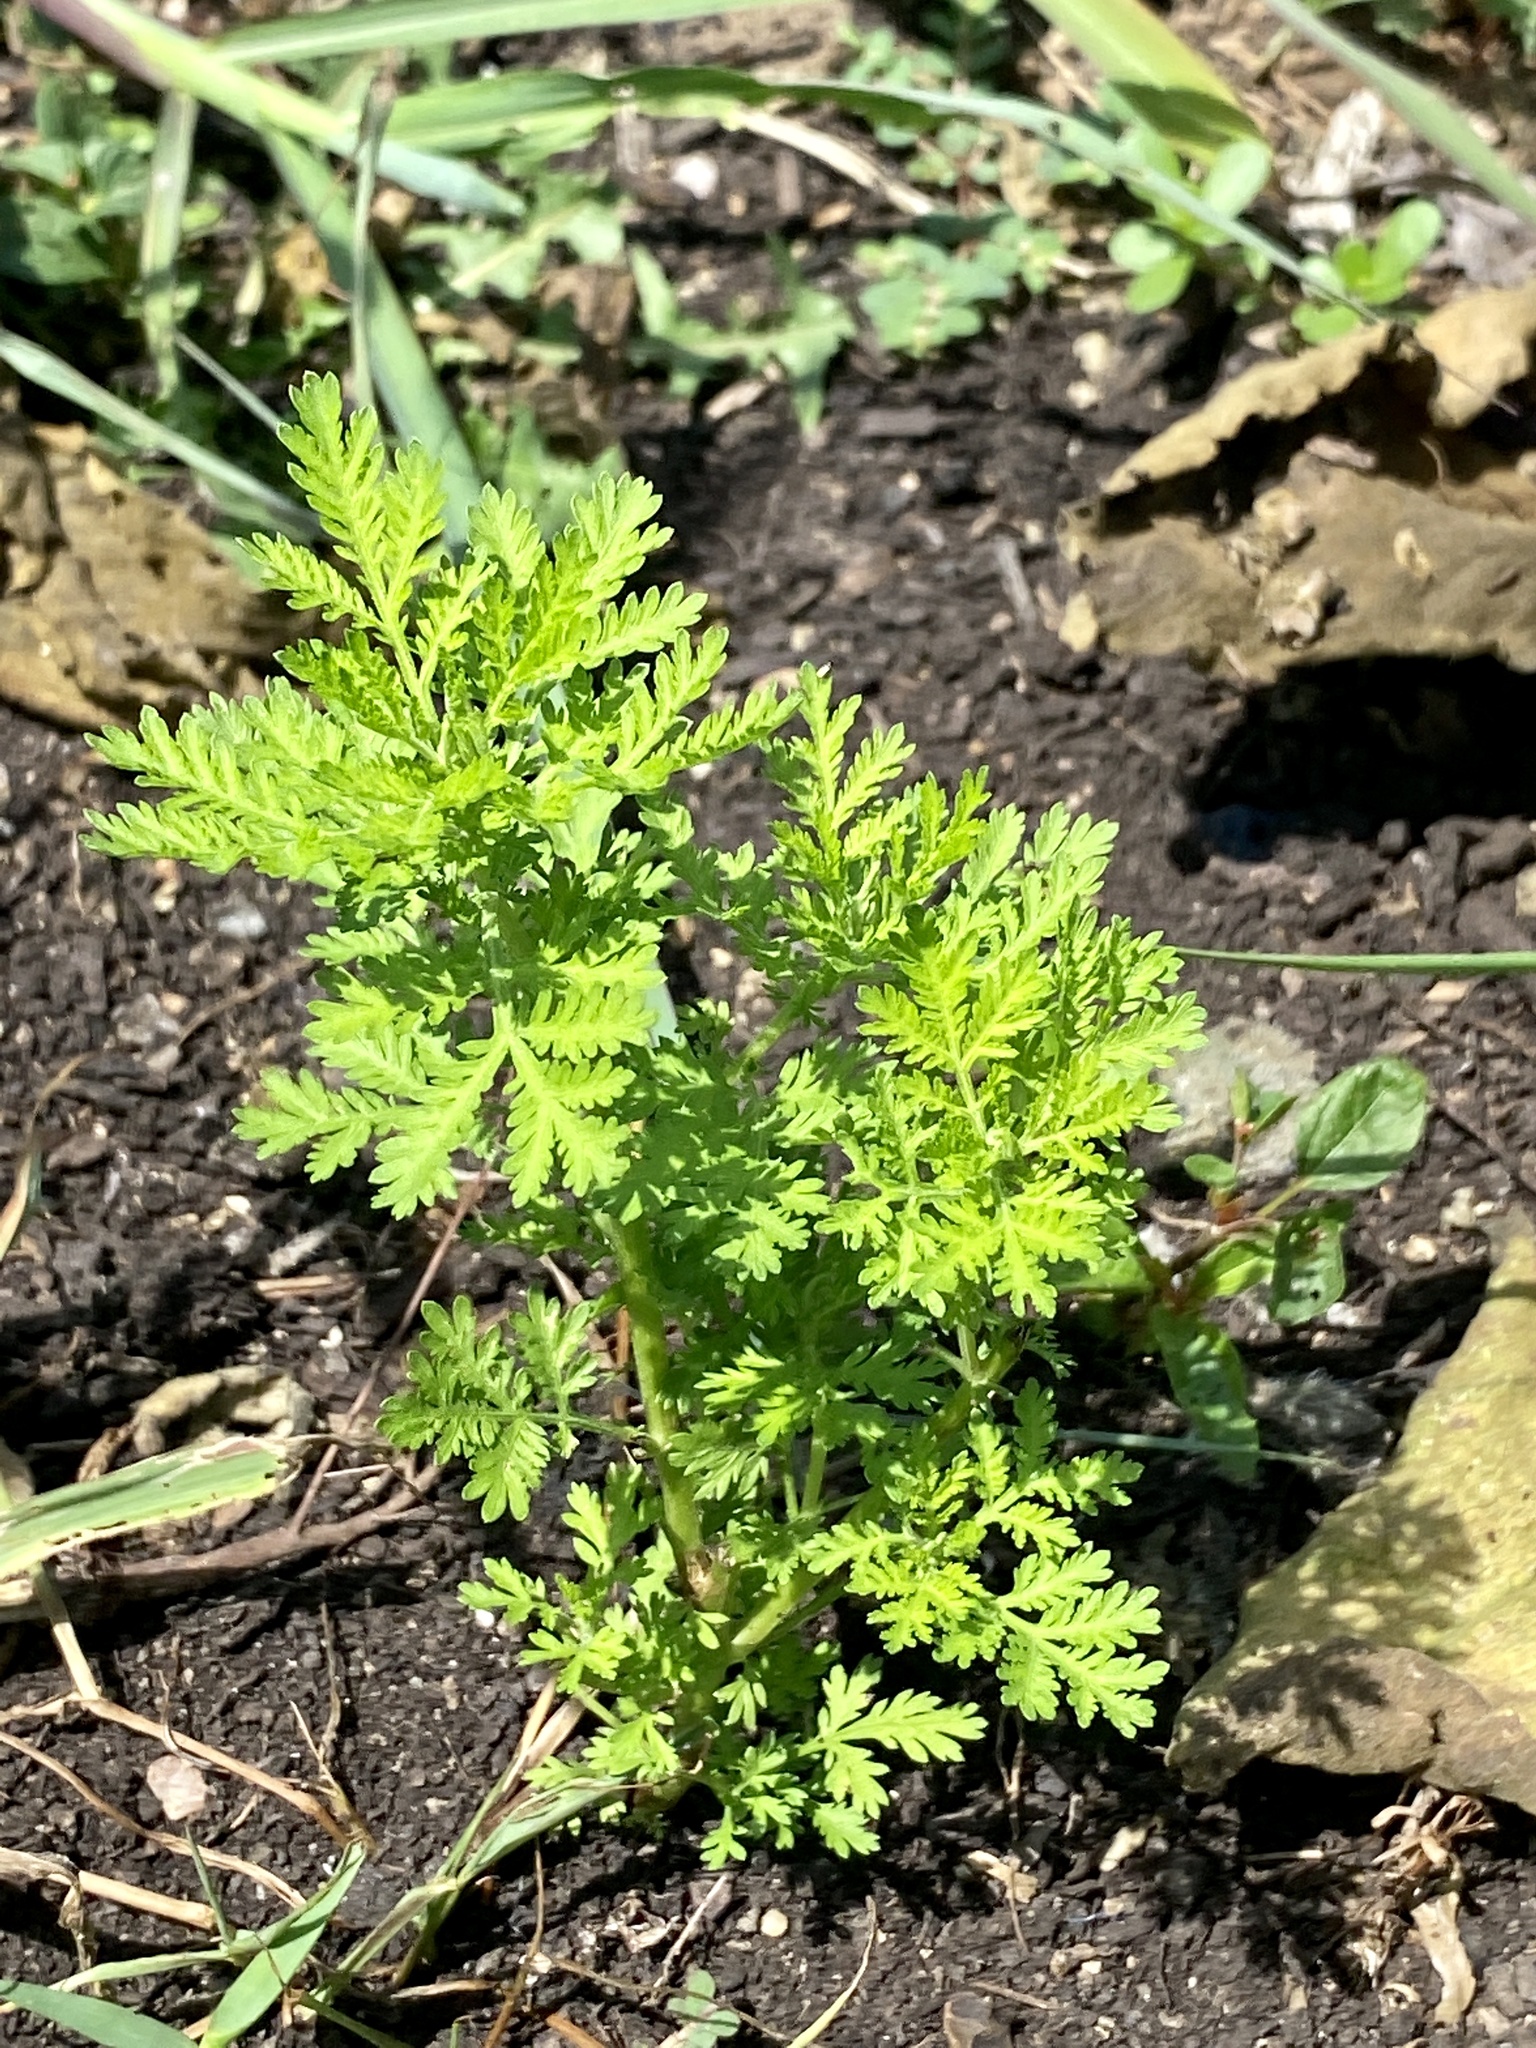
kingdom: Plantae
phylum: Tracheophyta
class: Magnoliopsida
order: Asterales
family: Asteraceae
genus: Artemisia
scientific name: Artemisia annua
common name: Sweet sagewort
